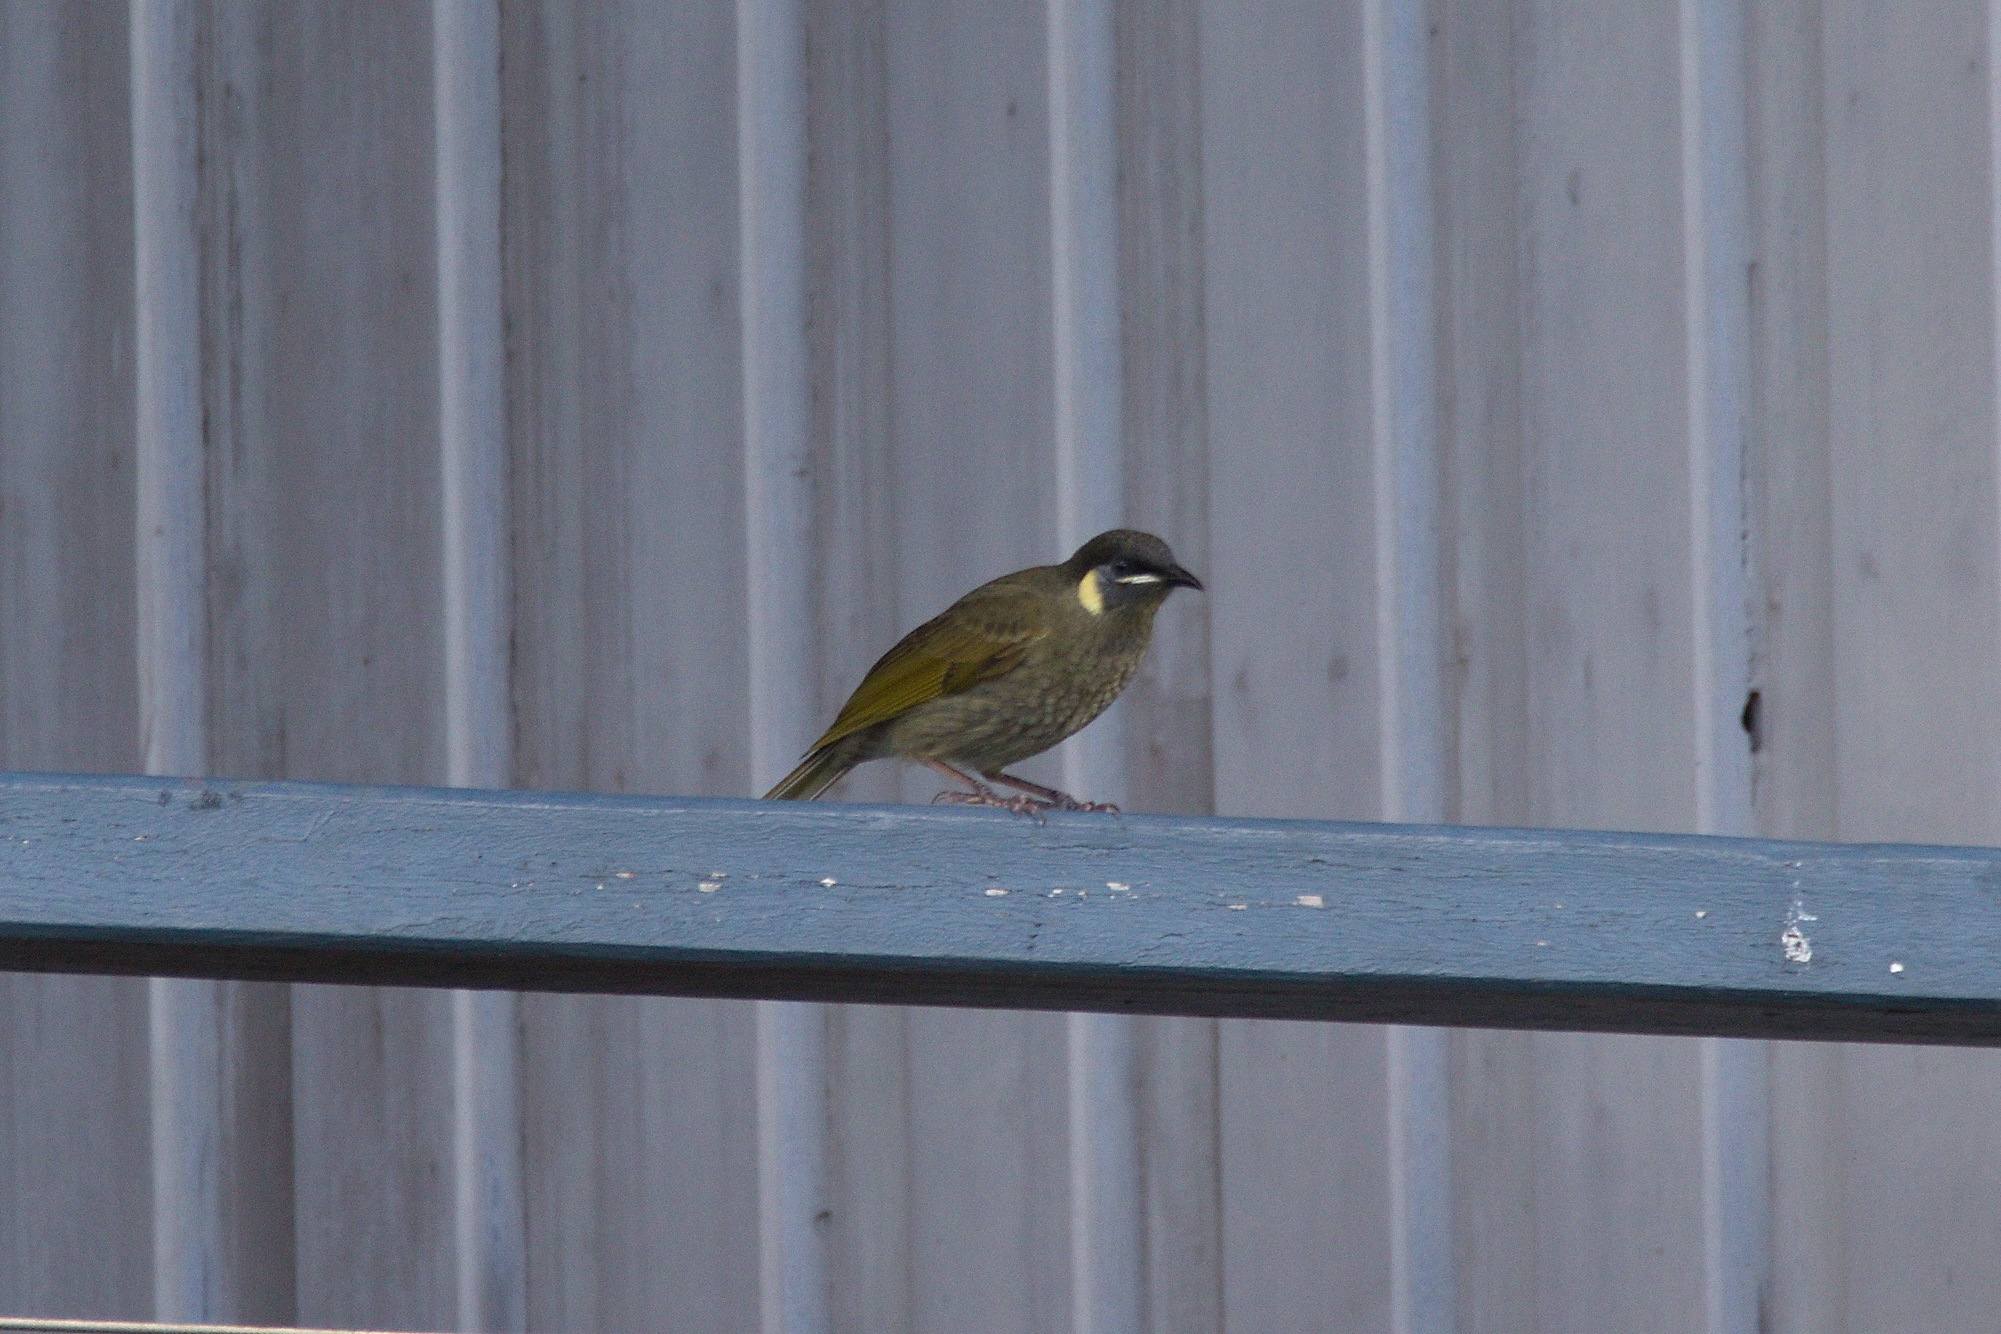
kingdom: Animalia
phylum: Chordata
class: Aves
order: Passeriformes
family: Meliphagidae
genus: Meliphaga
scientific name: Meliphaga lewinii
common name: Lewin's honeyeater
